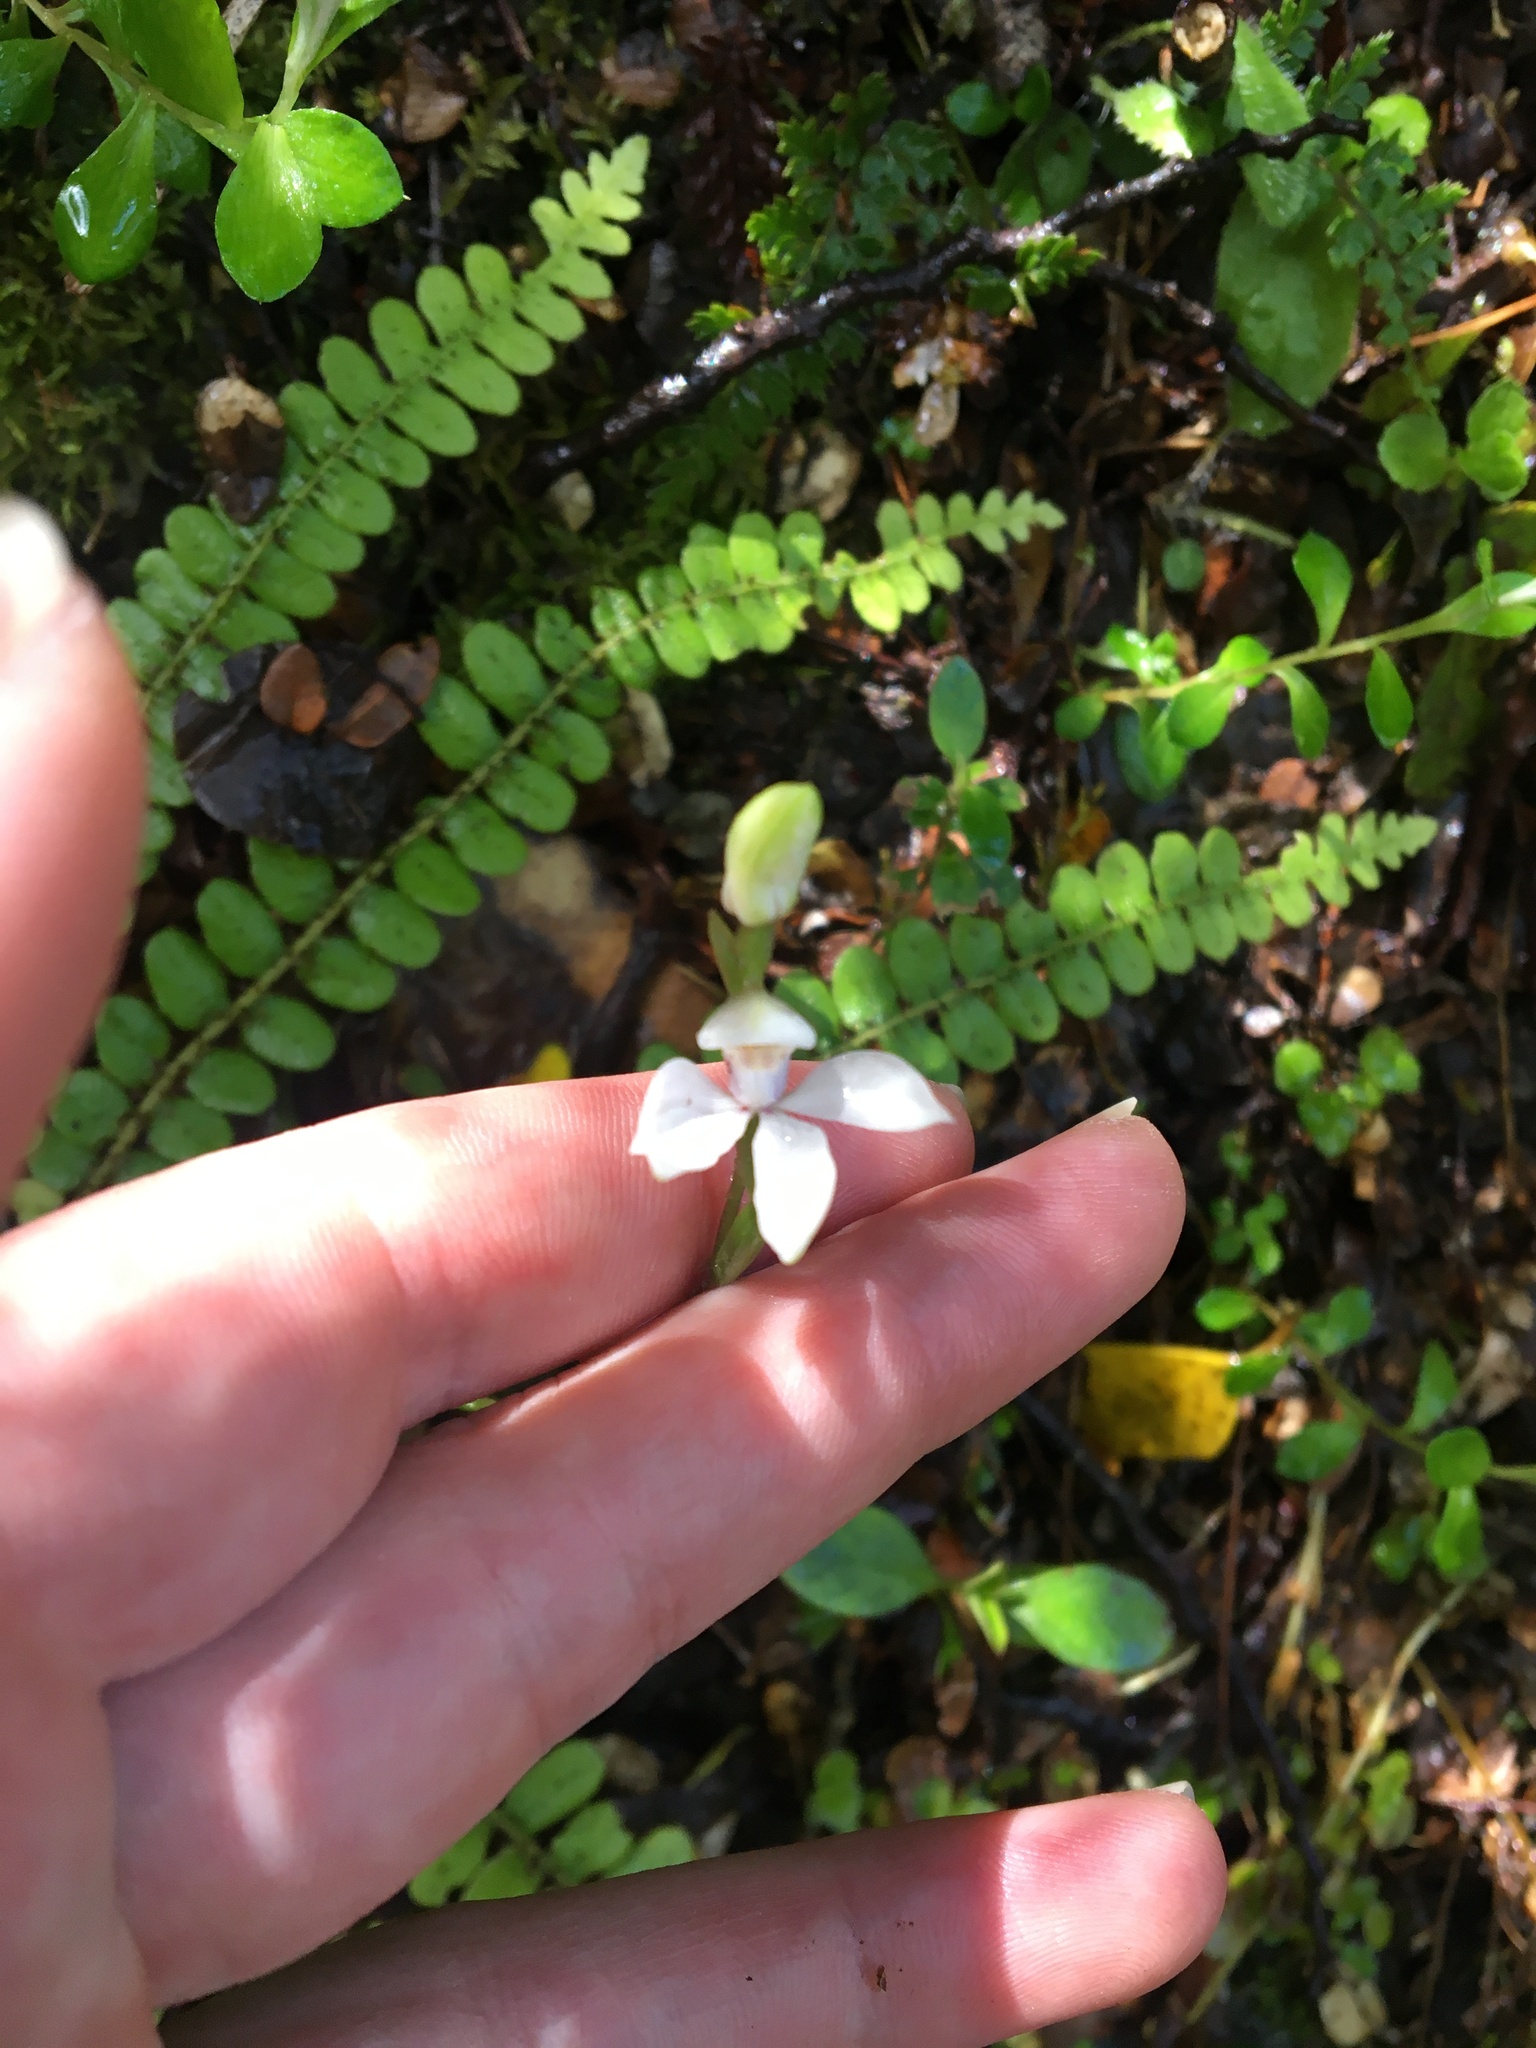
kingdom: Plantae
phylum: Tracheophyta
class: Liliopsida
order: Asparagales
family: Orchidaceae
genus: Caladenia
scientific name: Caladenia lyallii
